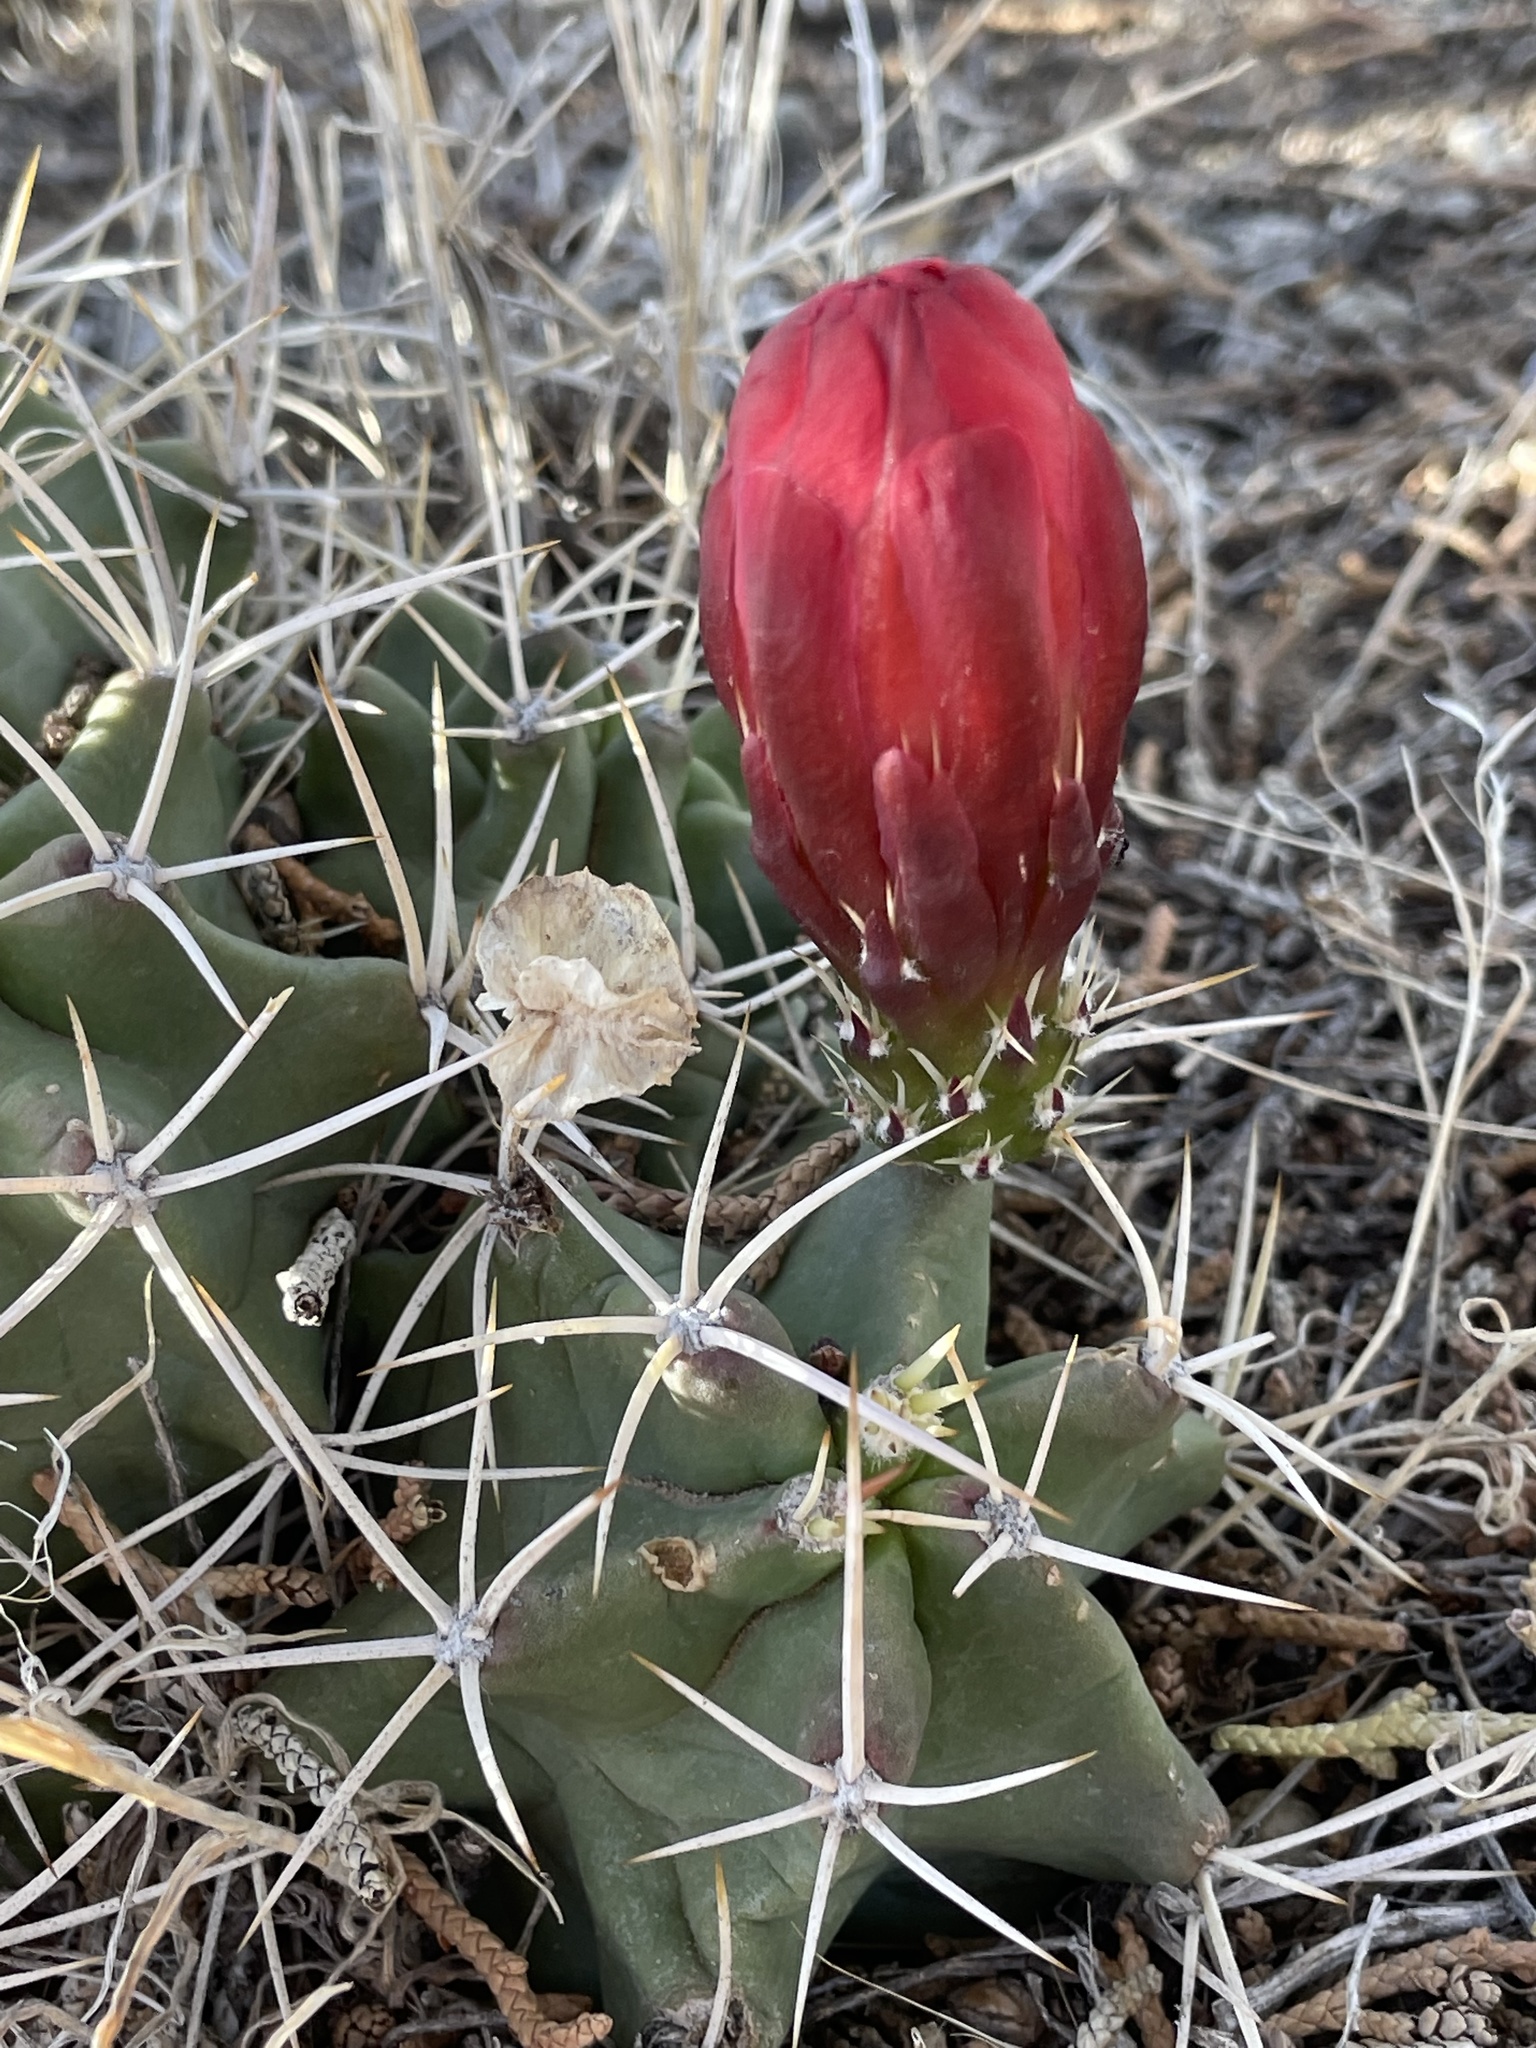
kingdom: Plantae
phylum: Tracheophyta
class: Magnoliopsida
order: Caryophyllales
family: Cactaceae
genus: Echinocereus
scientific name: Echinocereus triglochidiatus
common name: Claretcup hedgehog
